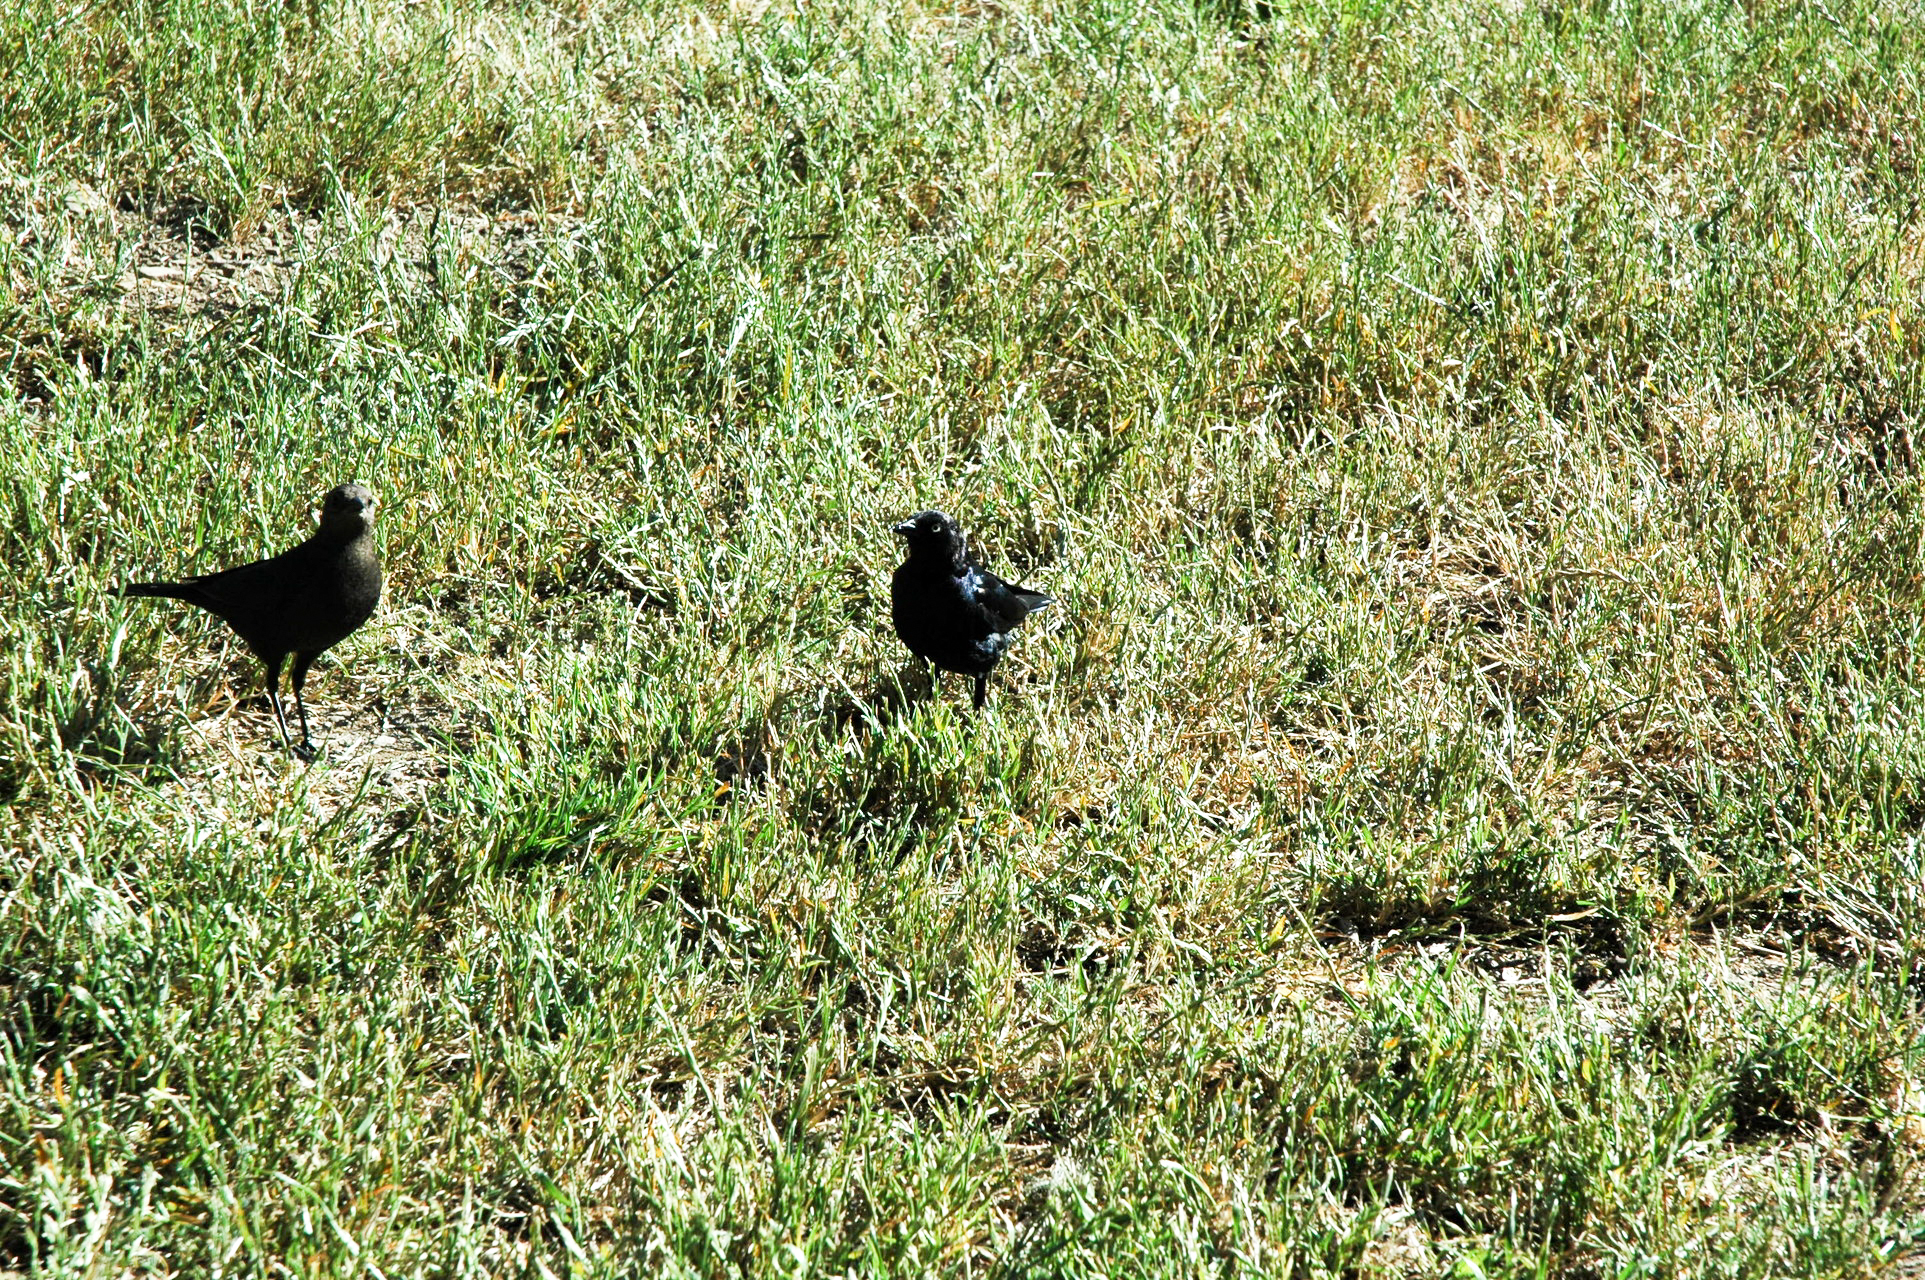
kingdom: Animalia
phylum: Chordata
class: Aves
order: Passeriformes
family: Icteridae
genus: Euphagus
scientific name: Euphagus cyanocephalus
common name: Brewer's blackbird
